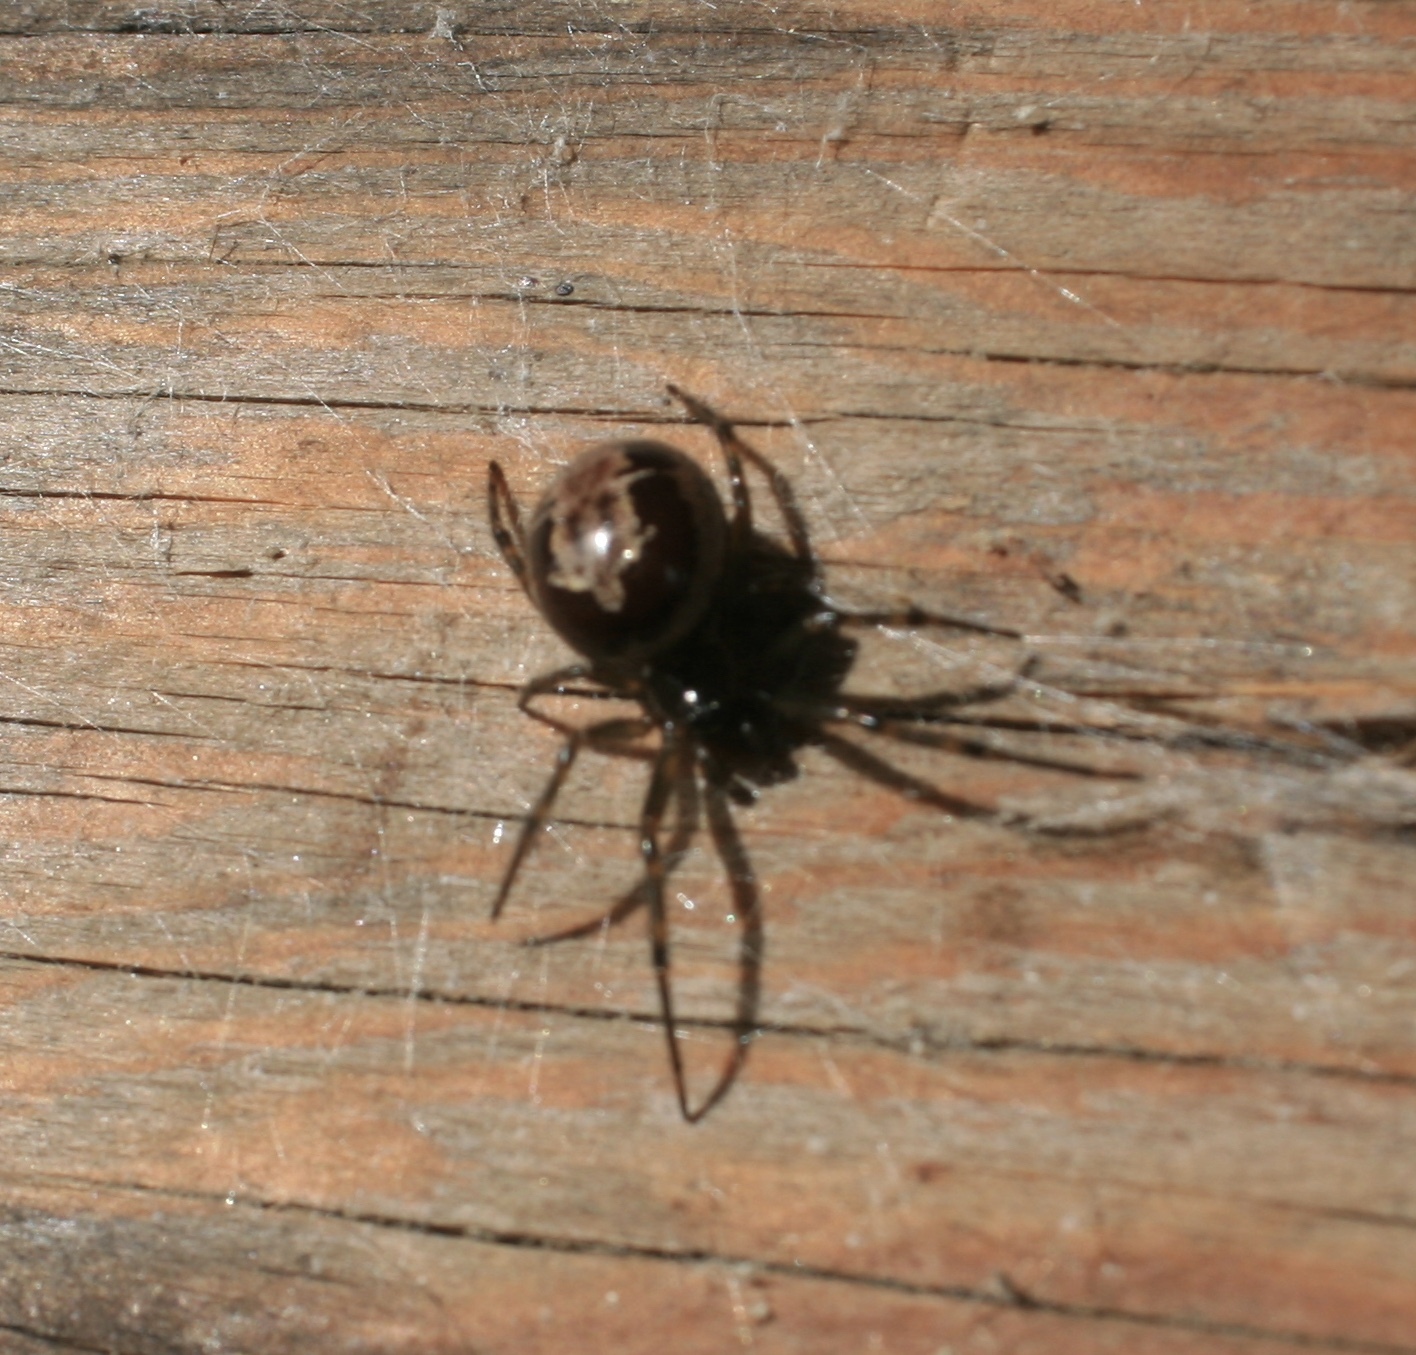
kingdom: Animalia
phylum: Arthropoda
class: Arachnida
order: Araneae
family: Theridiidae
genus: Steatoda
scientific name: Steatoda nobilis
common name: Cobweb weaver
